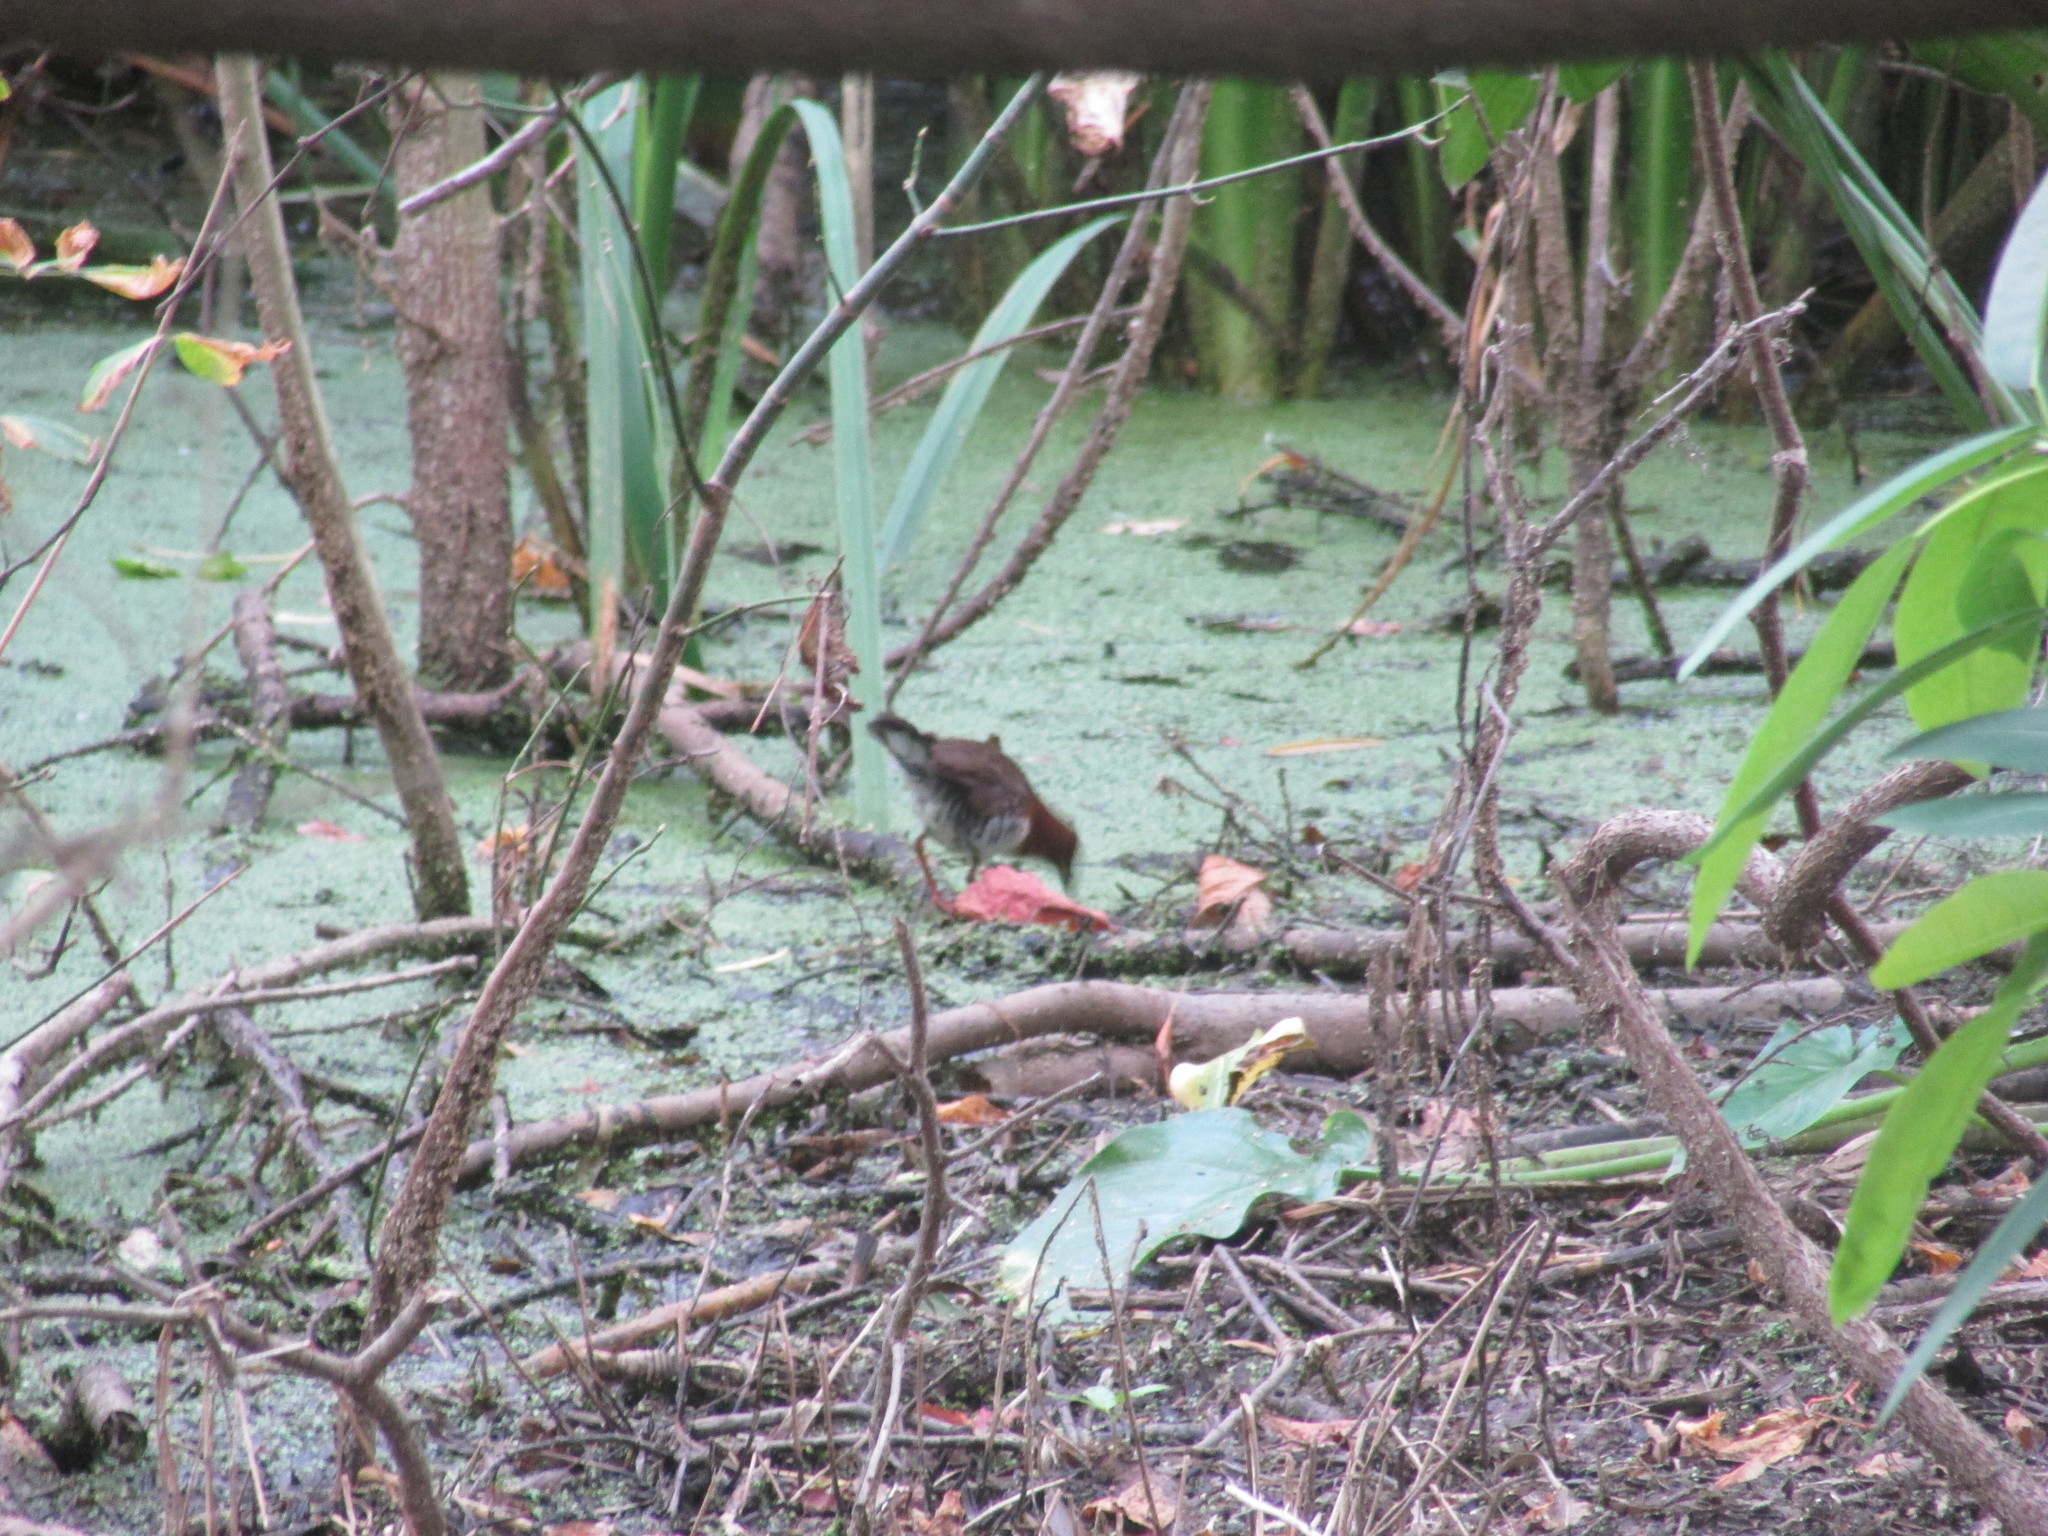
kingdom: Animalia
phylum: Chordata
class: Aves
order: Gruiformes
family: Rallidae
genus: Laterallus
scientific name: Laterallus leucopyrrhus
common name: Red-and-white crake
